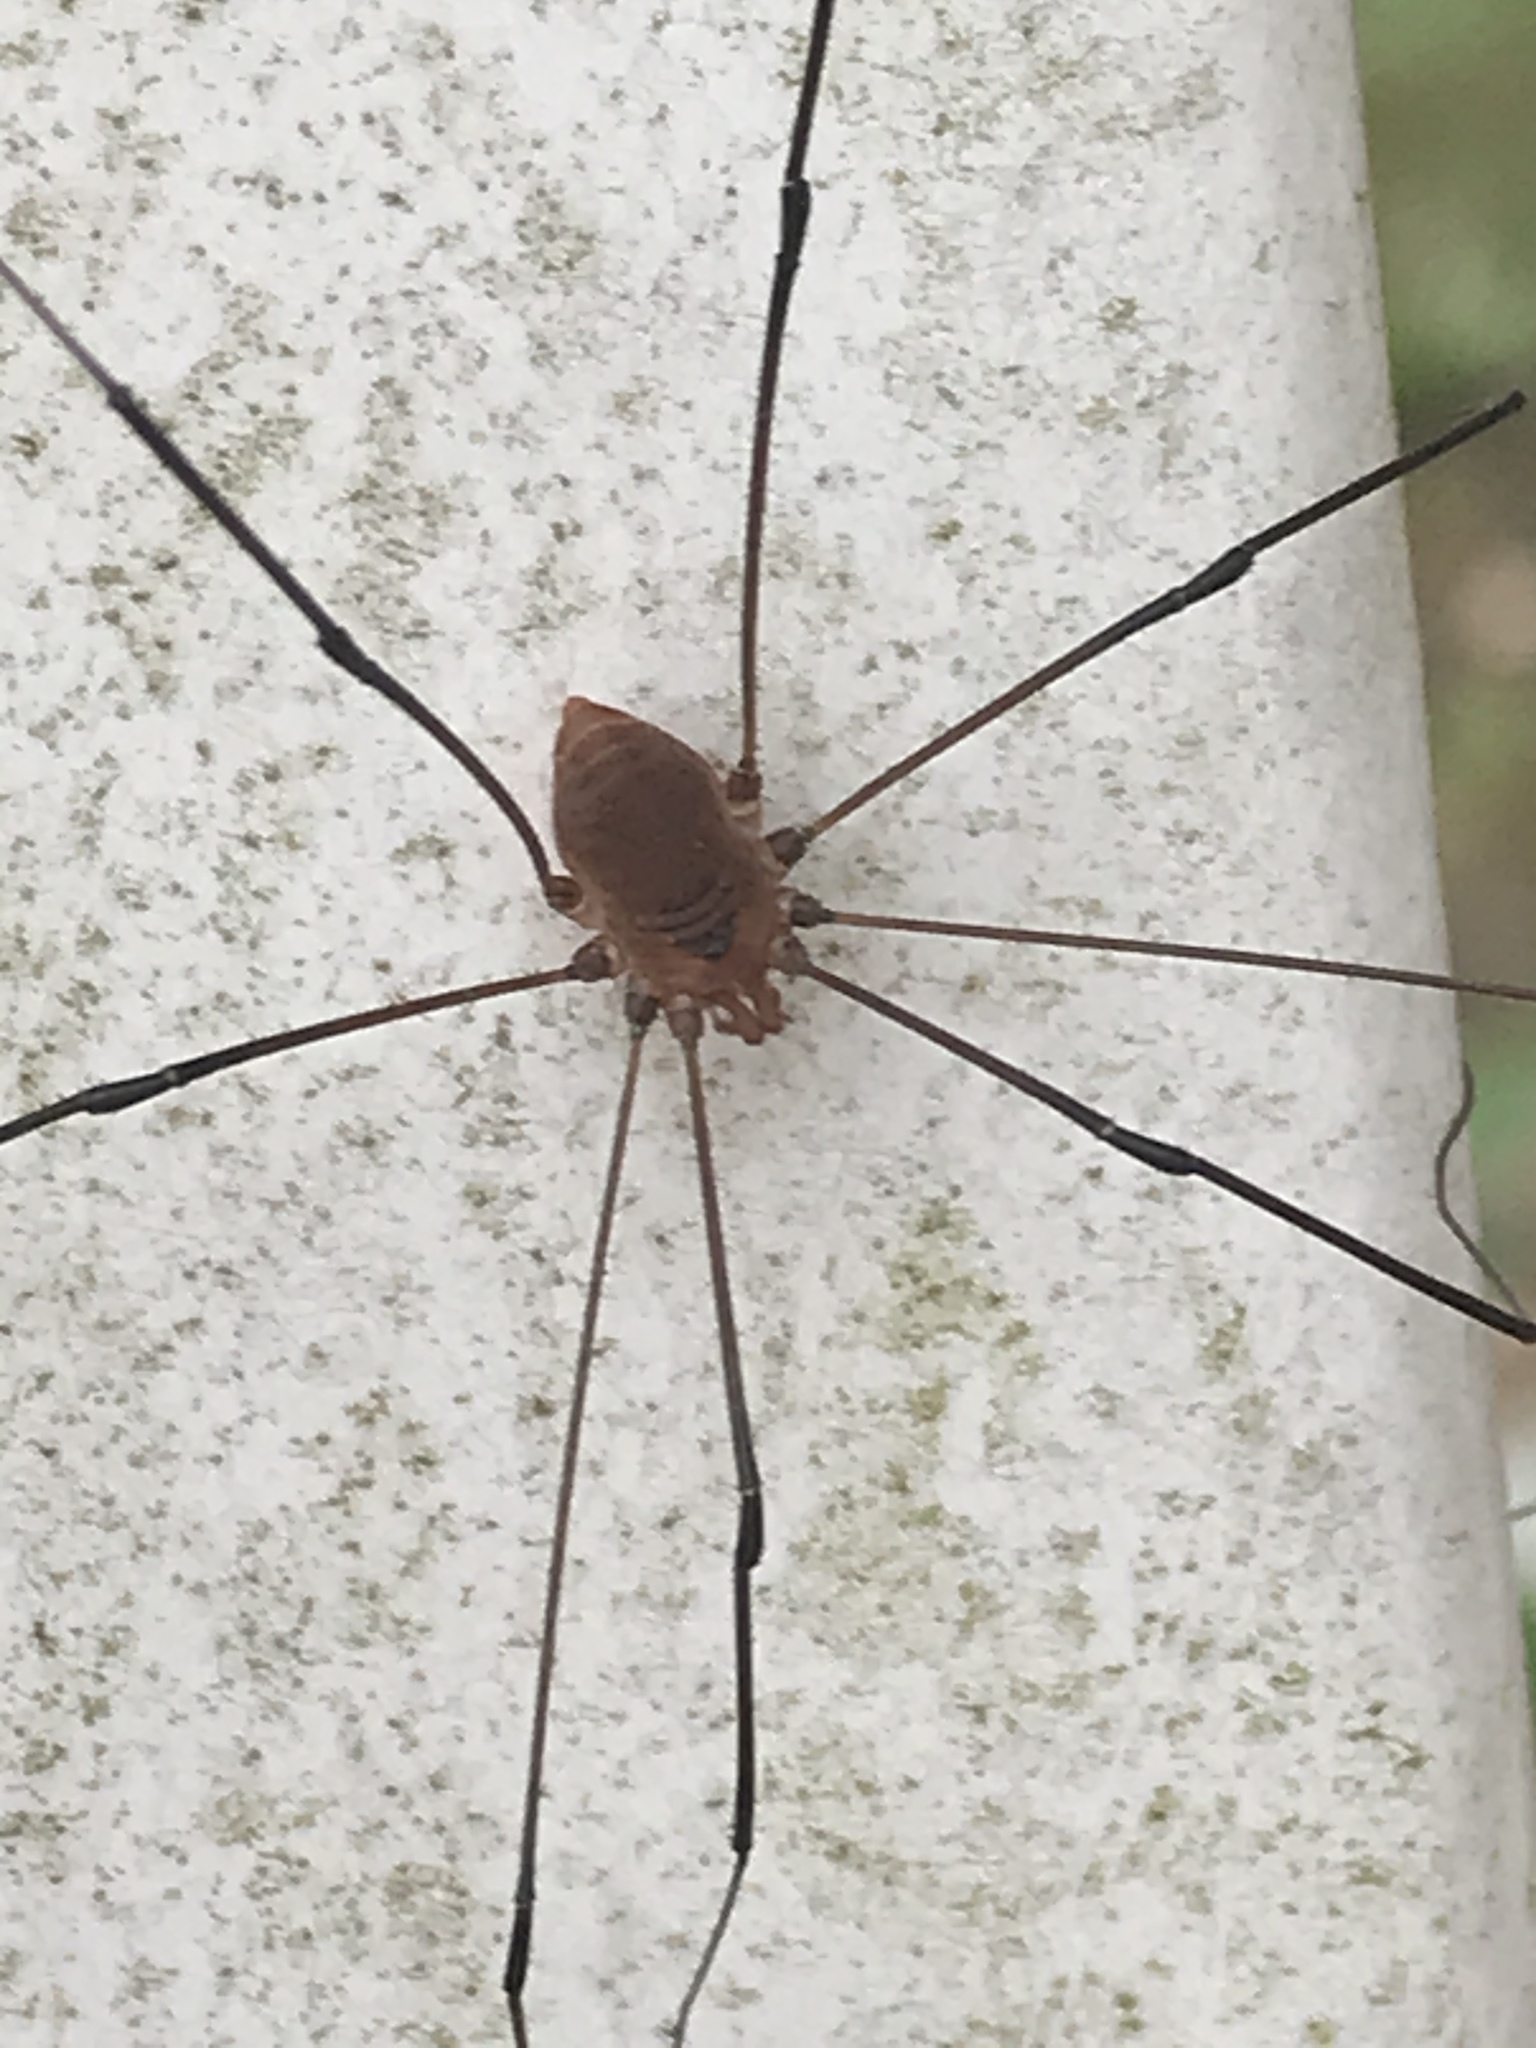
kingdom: Animalia
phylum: Arthropoda
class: Arachnida
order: Opiliones
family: Sclerosomatidae
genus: Leiobunum
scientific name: Leiobunum vittatum
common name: Eastern harvestman
